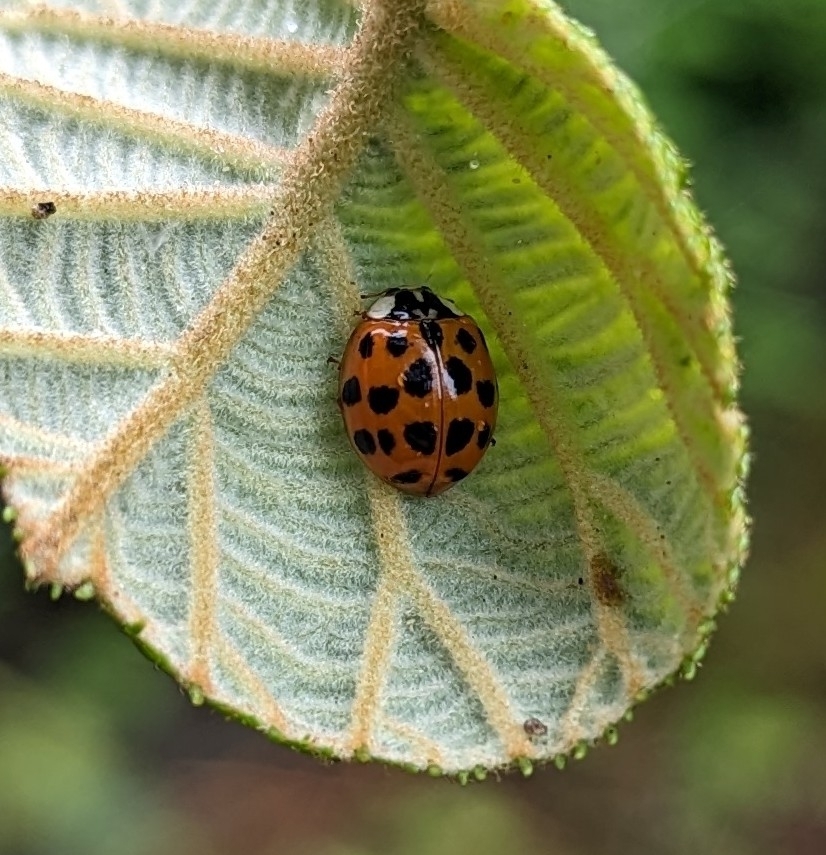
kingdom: Animalia
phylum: Arthropoda
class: Insecta
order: Coleoptera
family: Coccinellidae
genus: Harmonia
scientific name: Harmonia axyridis
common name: Harlequin ladybird
